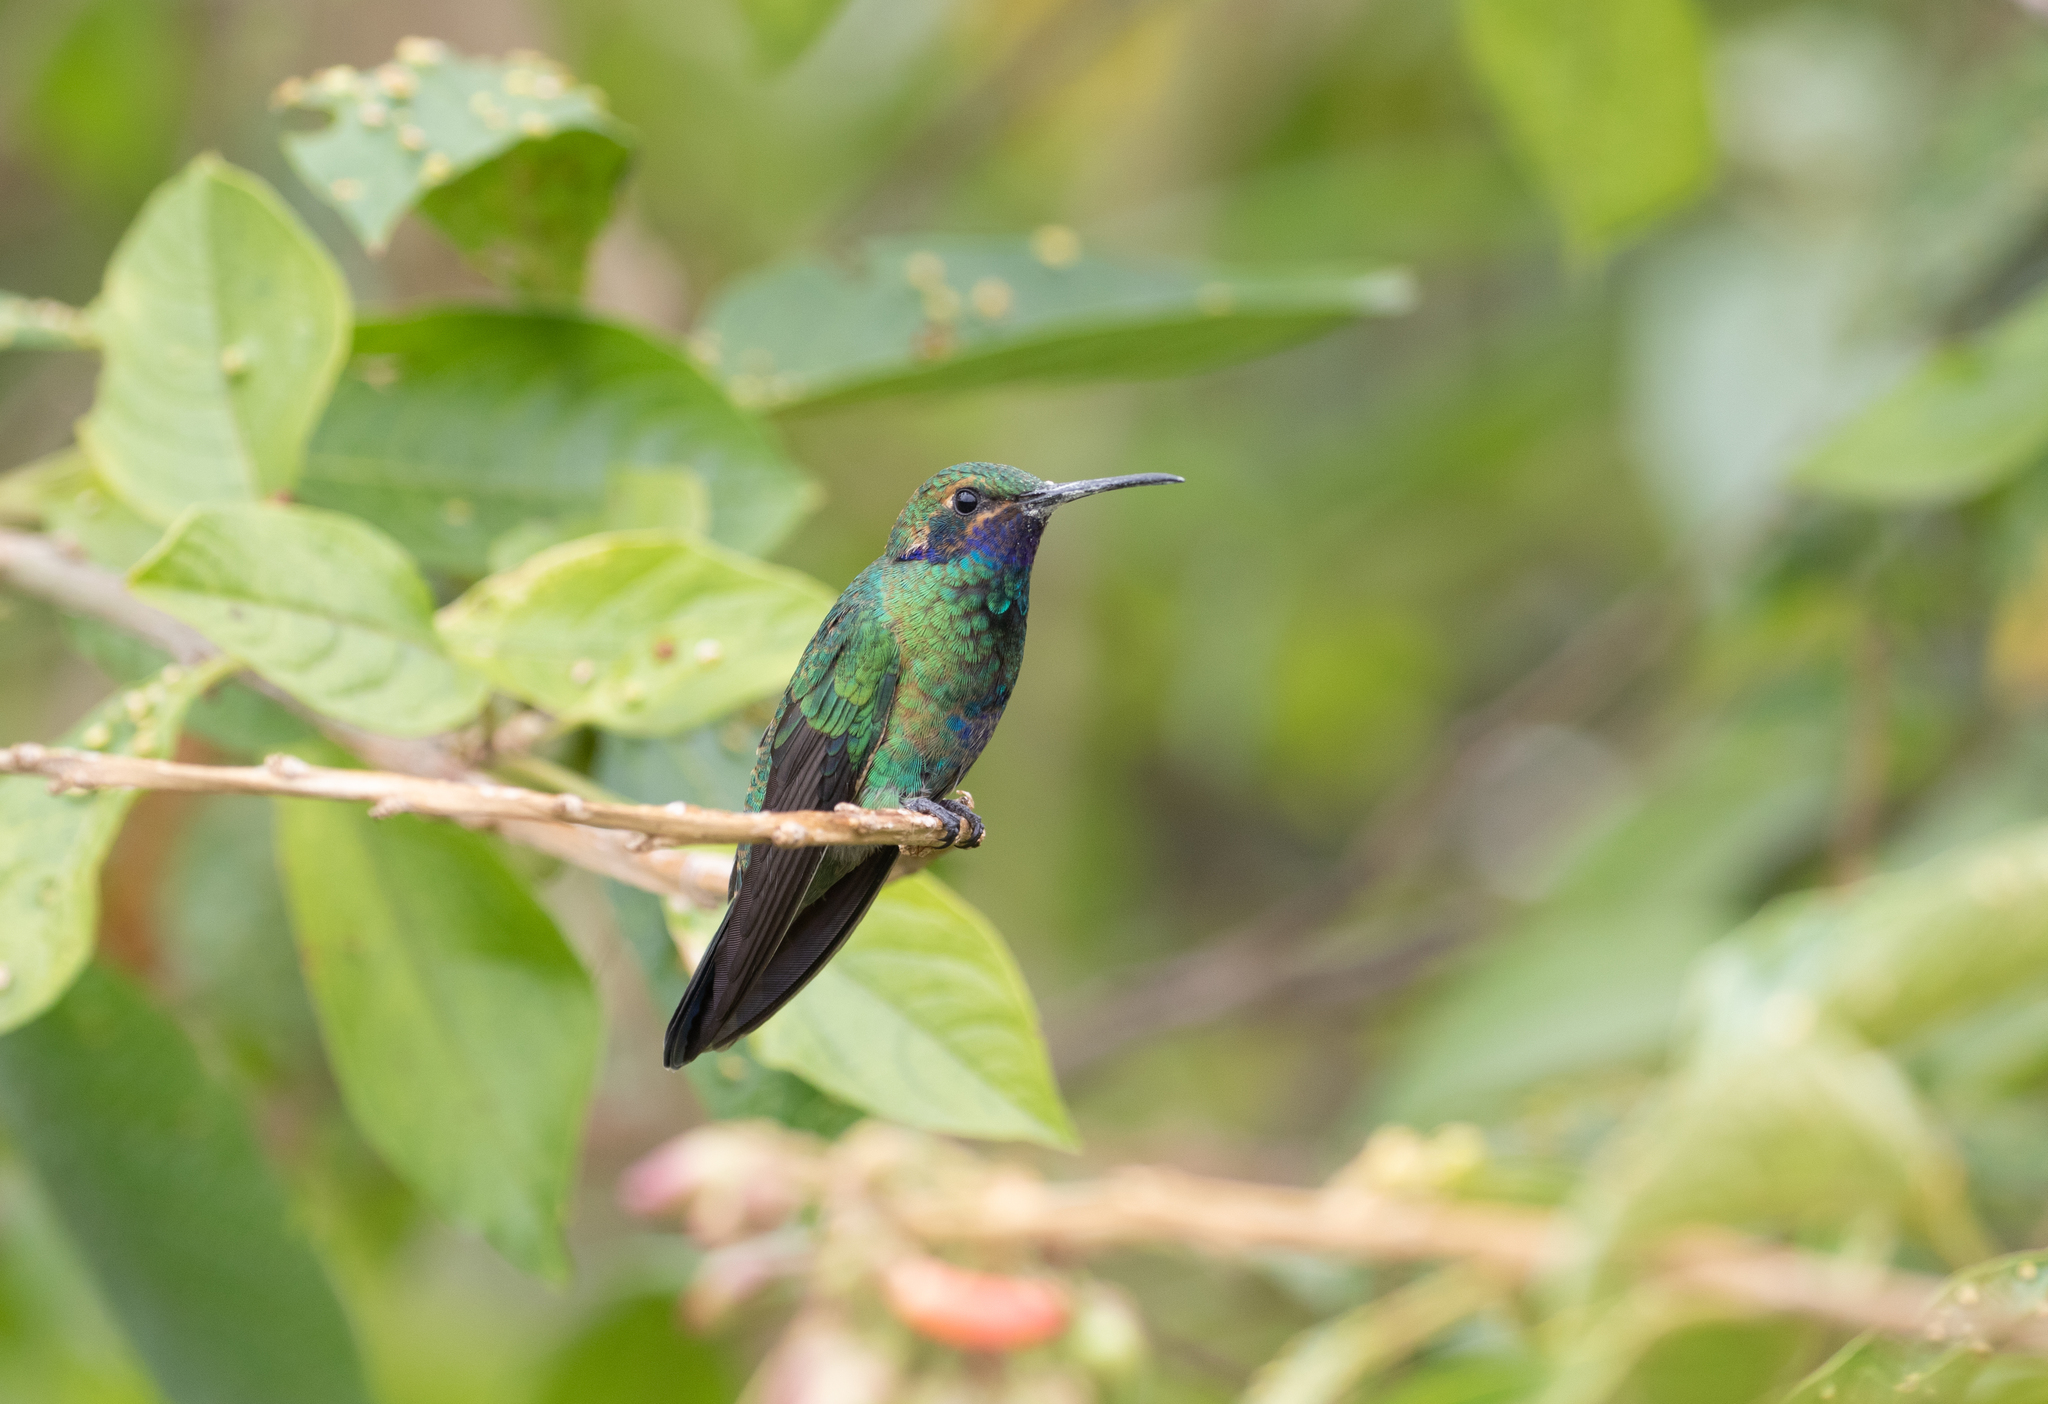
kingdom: Animalia
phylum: Chordata
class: Aves
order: Apodiformes
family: Trochilidae
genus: Colibri
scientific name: Colibri coruscans
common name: Sparkling violetear
